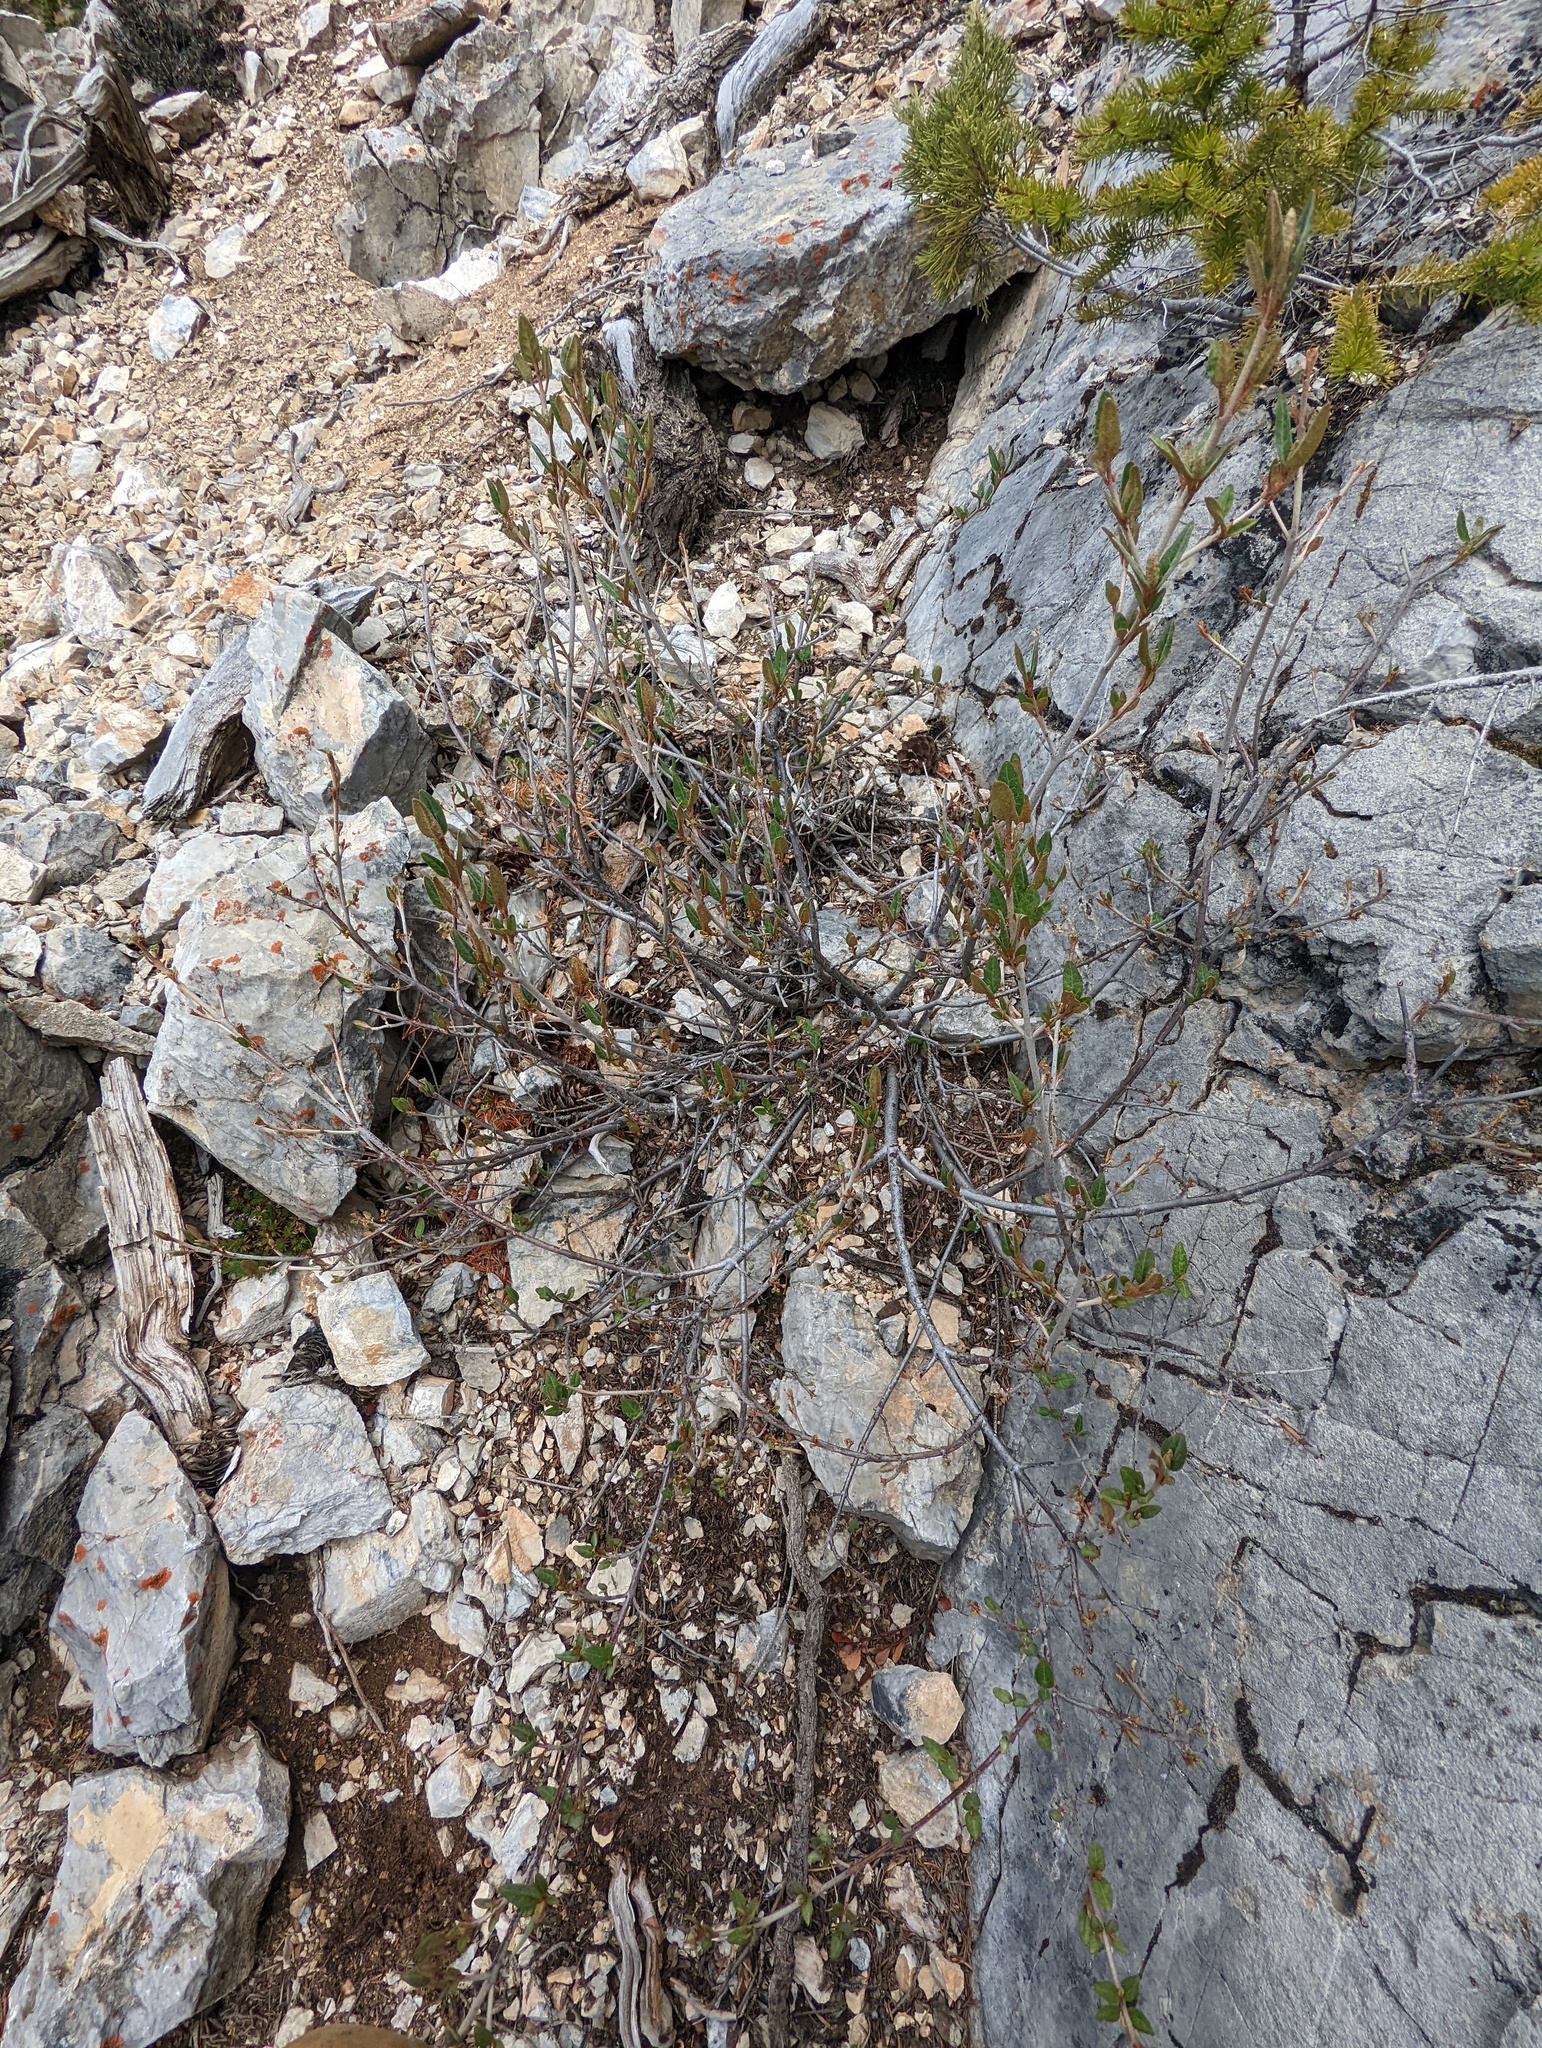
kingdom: Plantae
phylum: Tracheophyta
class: Magnoliopsida
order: Rosales
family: Elaeagnaceae
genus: Shepherdia
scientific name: Shepherdia canadensis
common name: Soapberry
